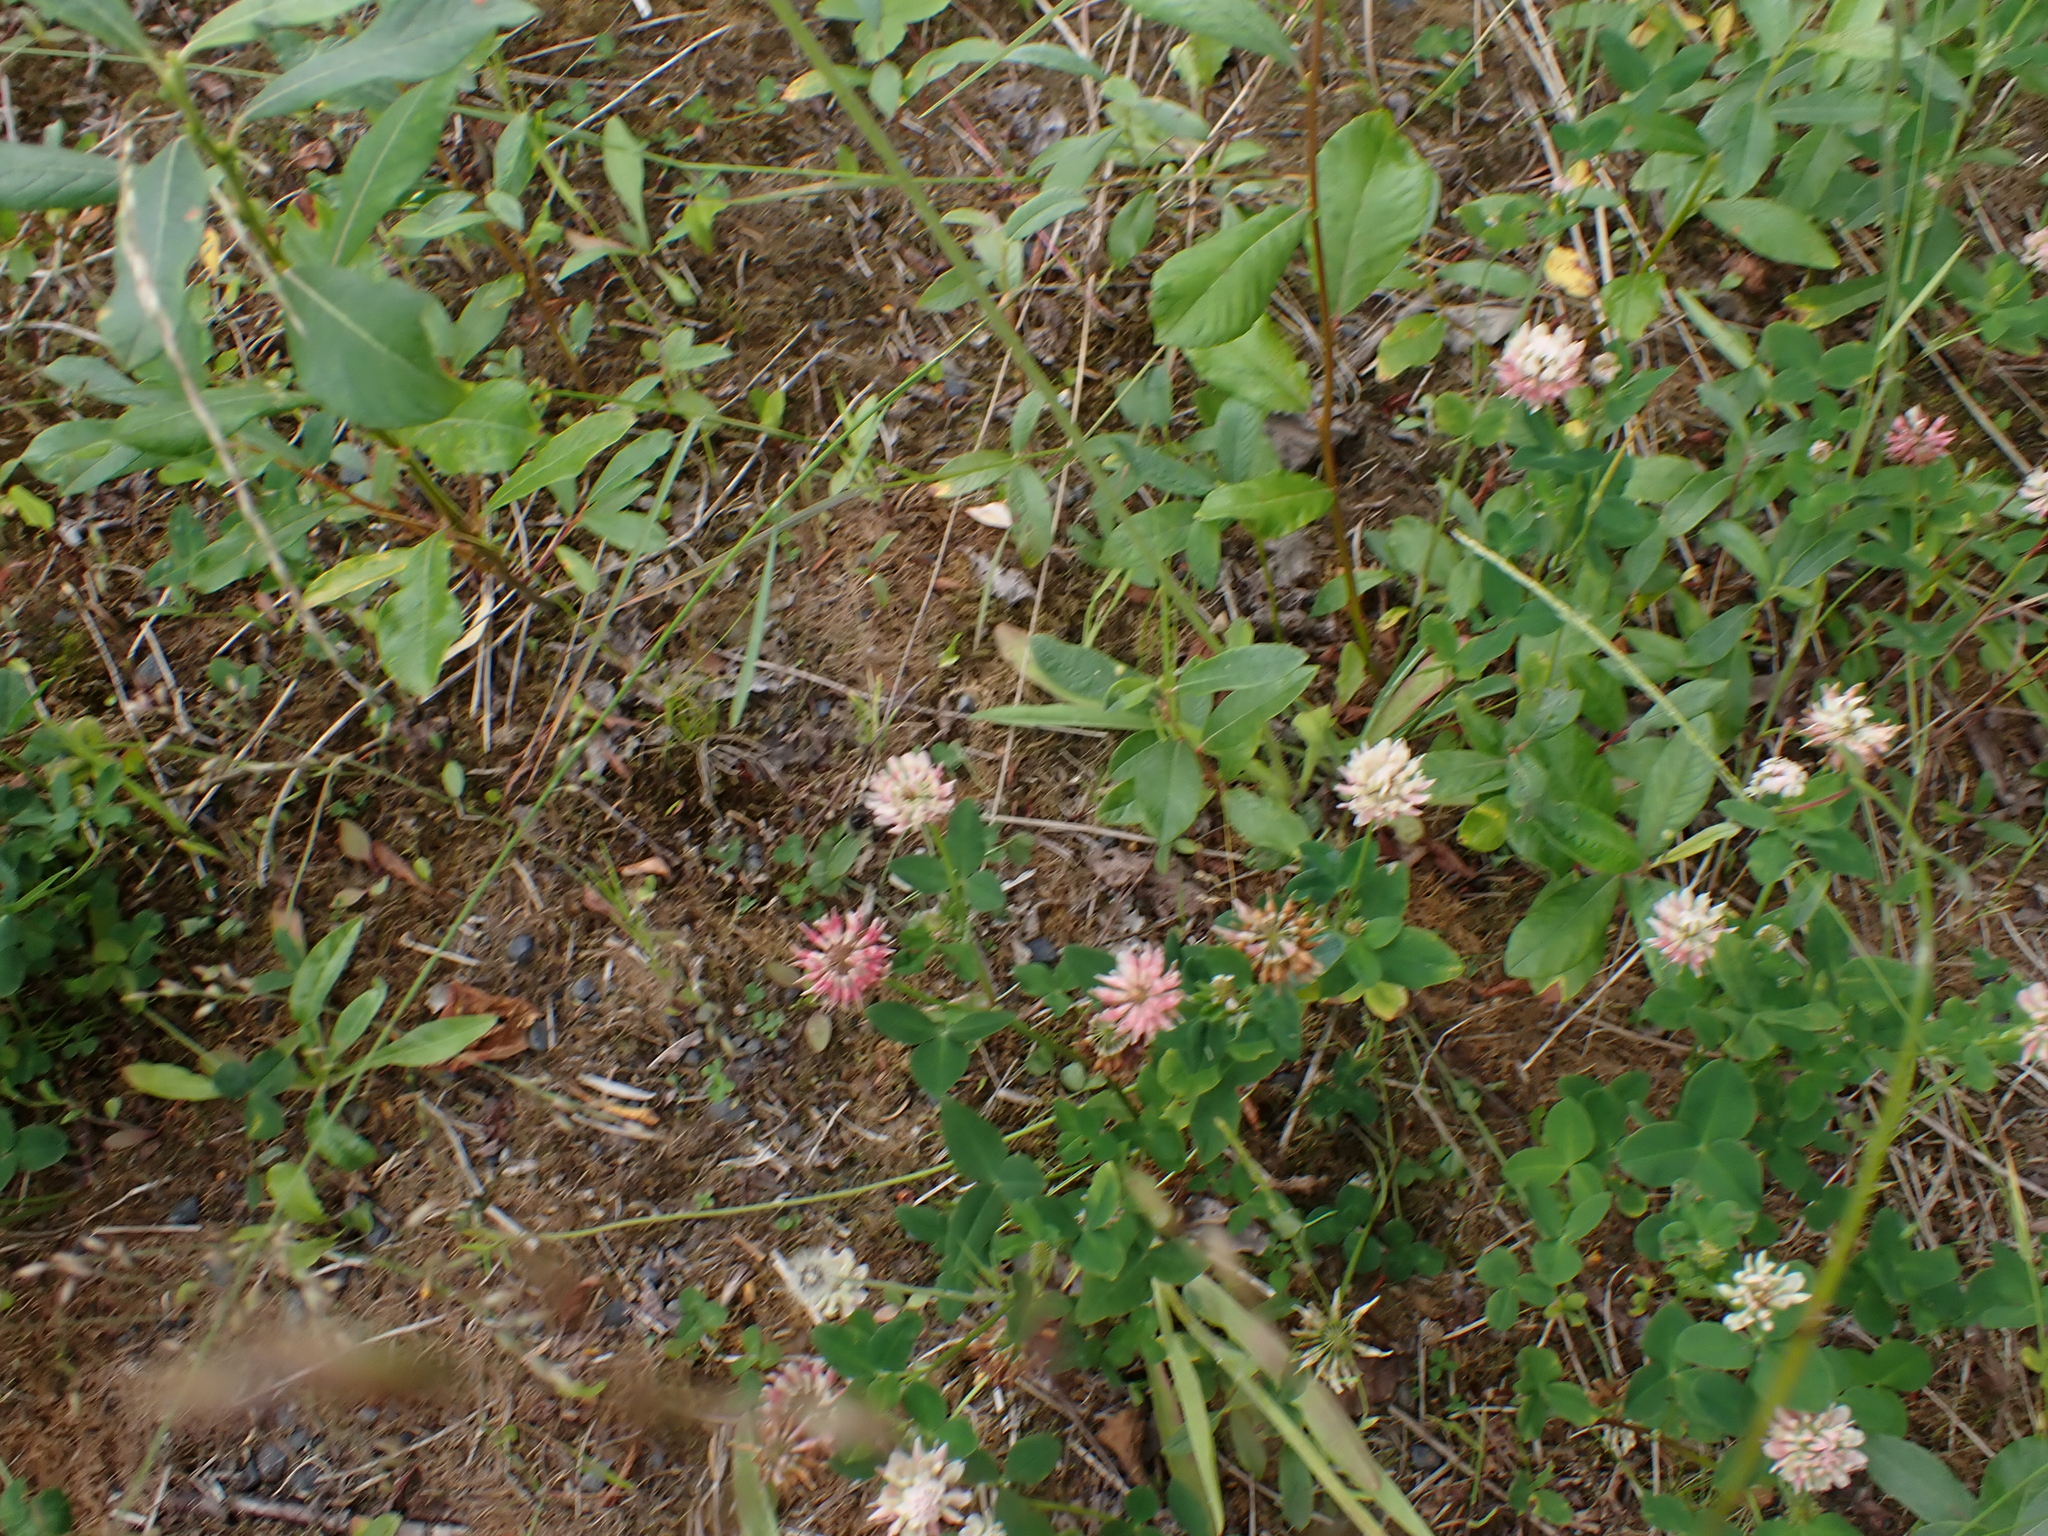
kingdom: Plantae
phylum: Tracheophyta
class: Magnoliopsida
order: Fabales
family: Fabaceae
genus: Trifolium
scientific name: Trifolium hybridum
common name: Alsike clover
